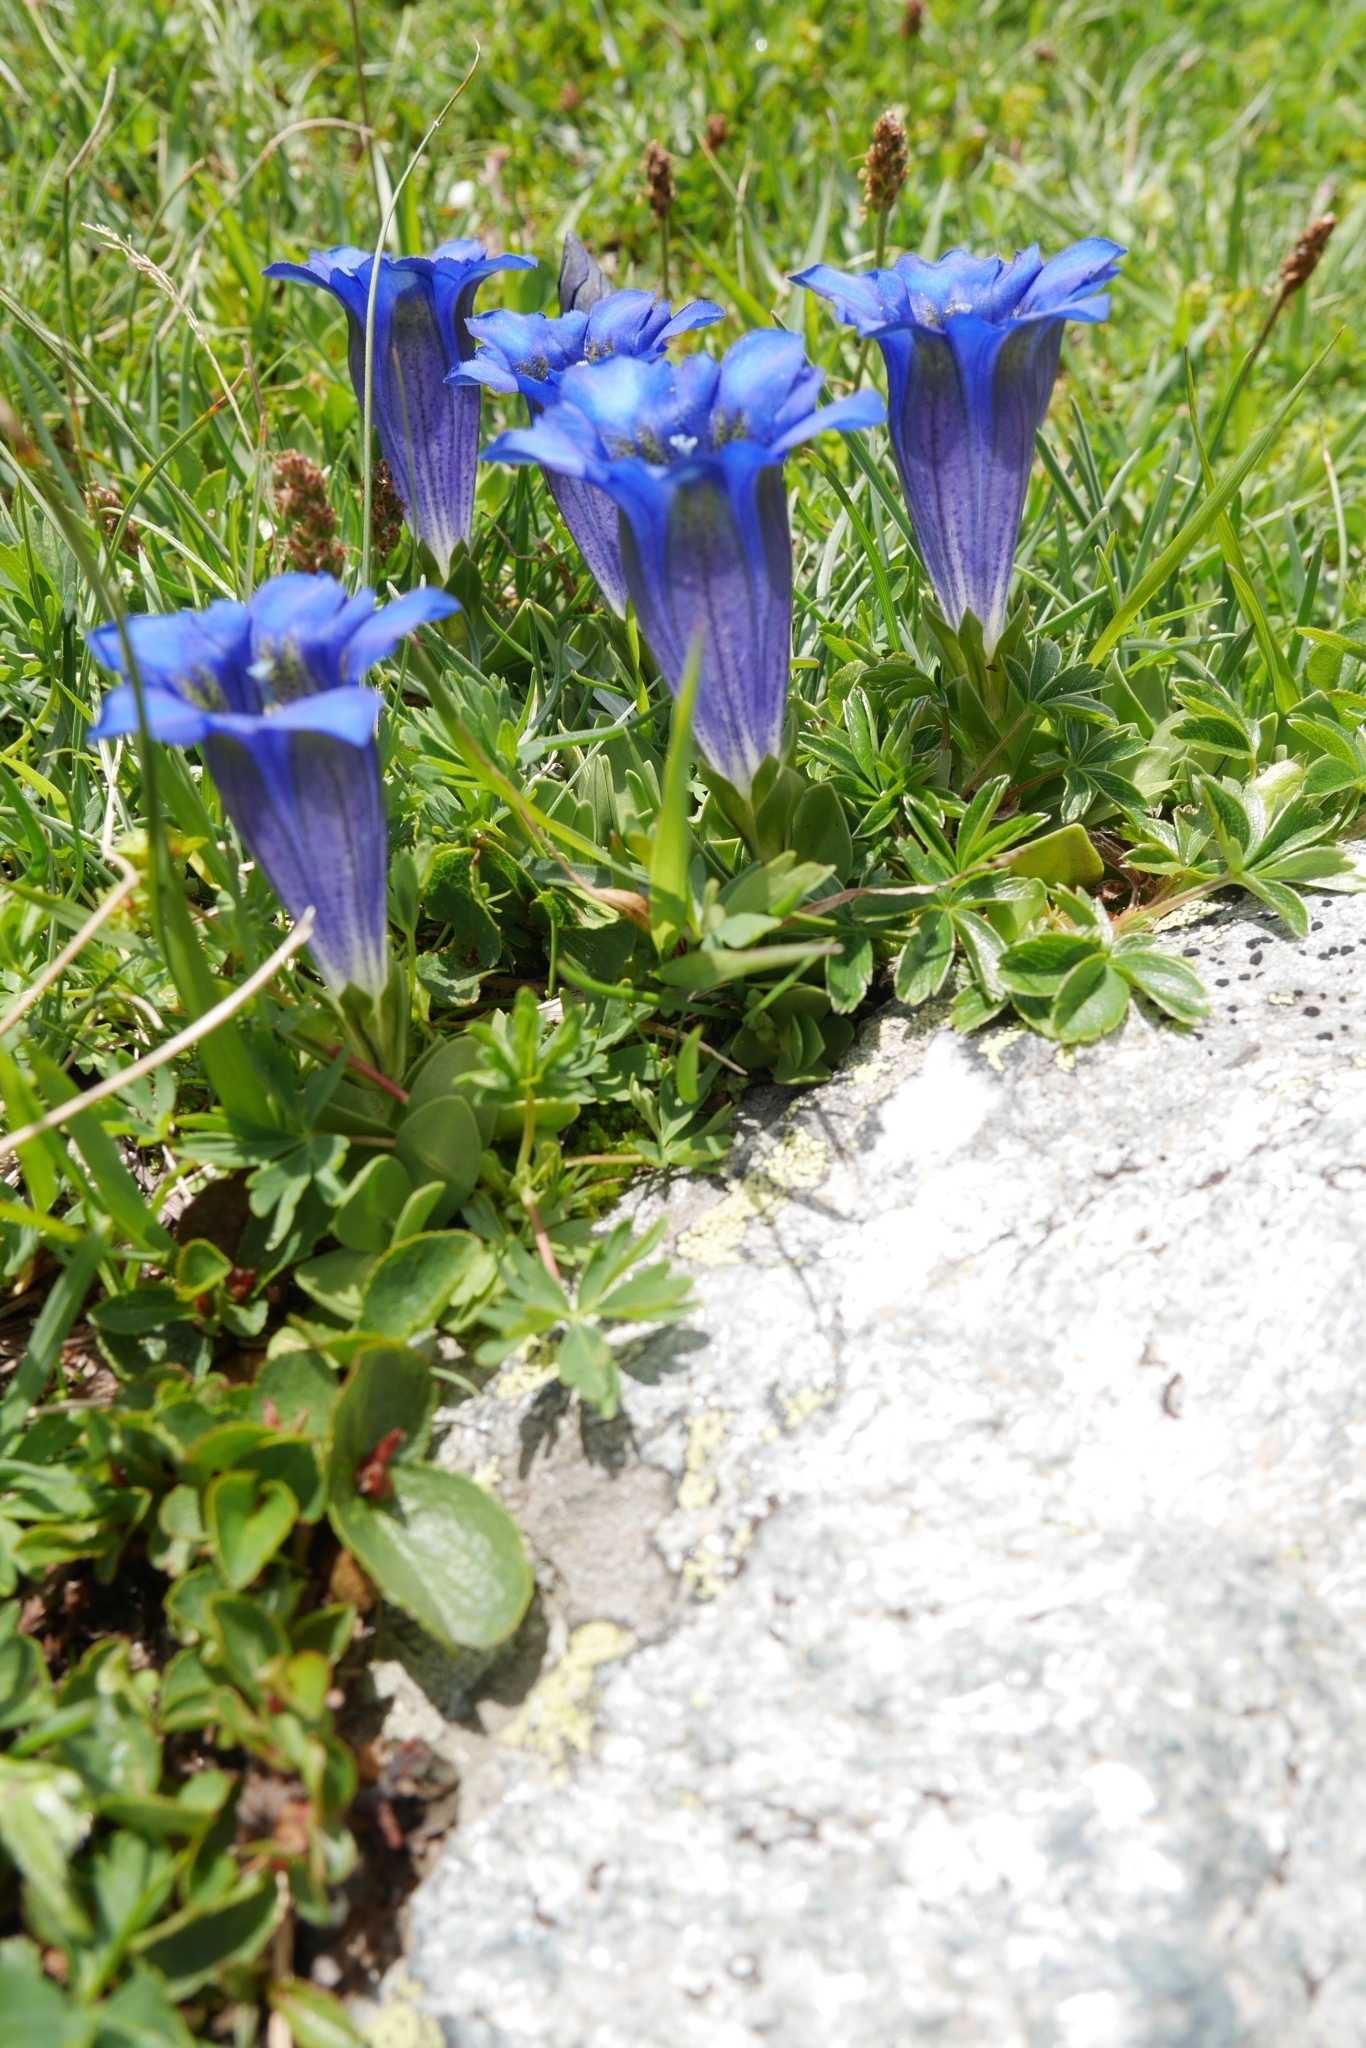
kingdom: Plantae
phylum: Tracheophyta
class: Magnoliopsida
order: Gentianales
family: Gentianaceae
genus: Gentiana
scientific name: Gentiana alpina
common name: Southern gentian
